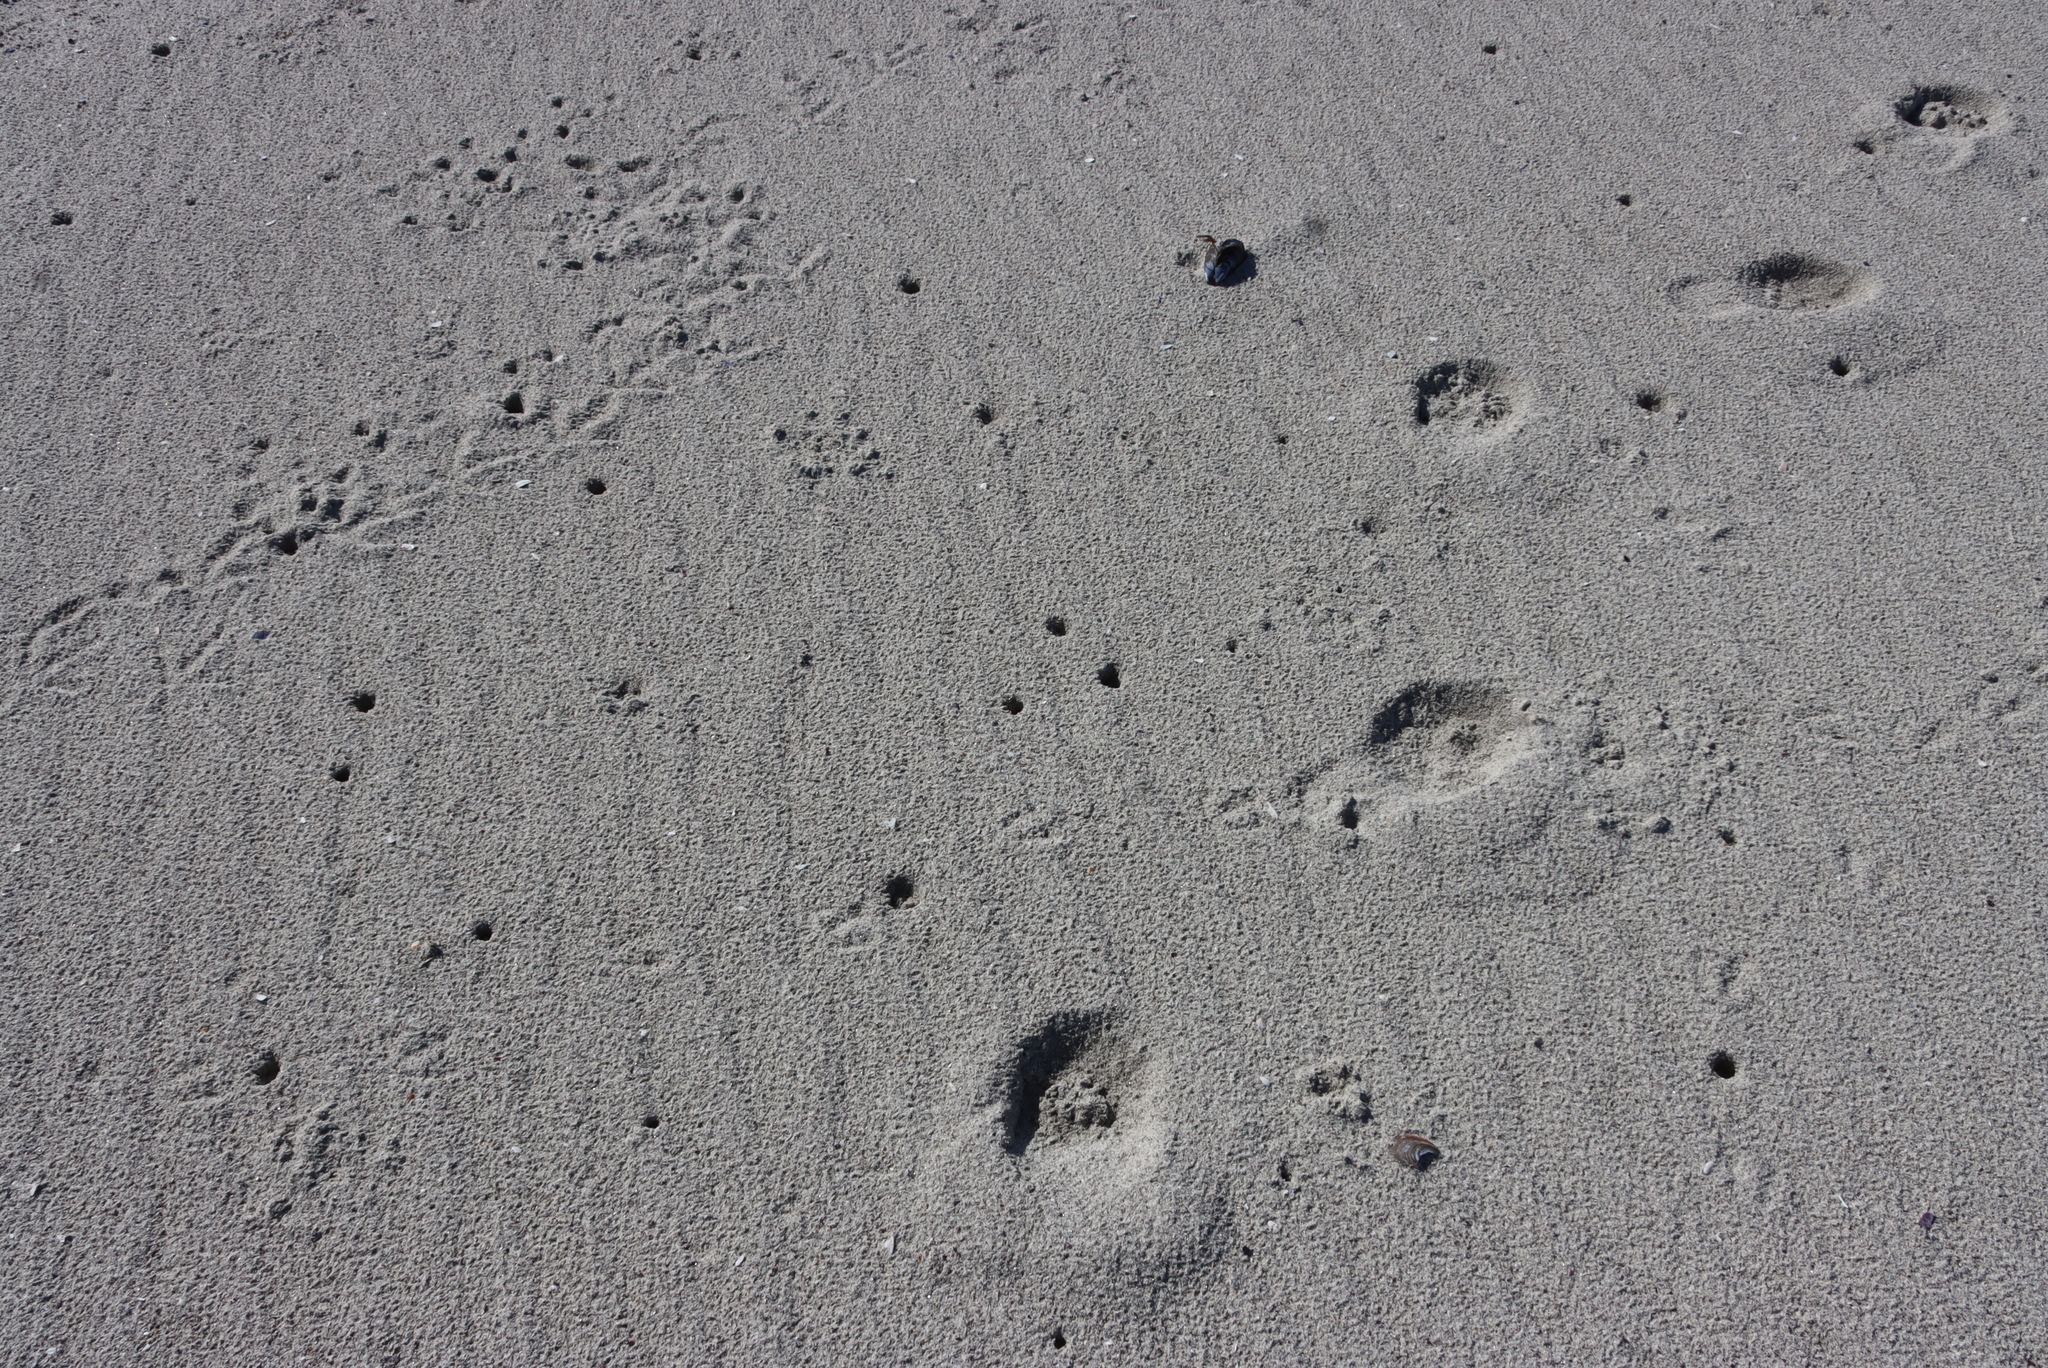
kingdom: Animalia
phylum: Arthropoda
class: Malacostraca
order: Isopoda
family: Tylidae
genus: Tylos
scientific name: Tylos granulatus
